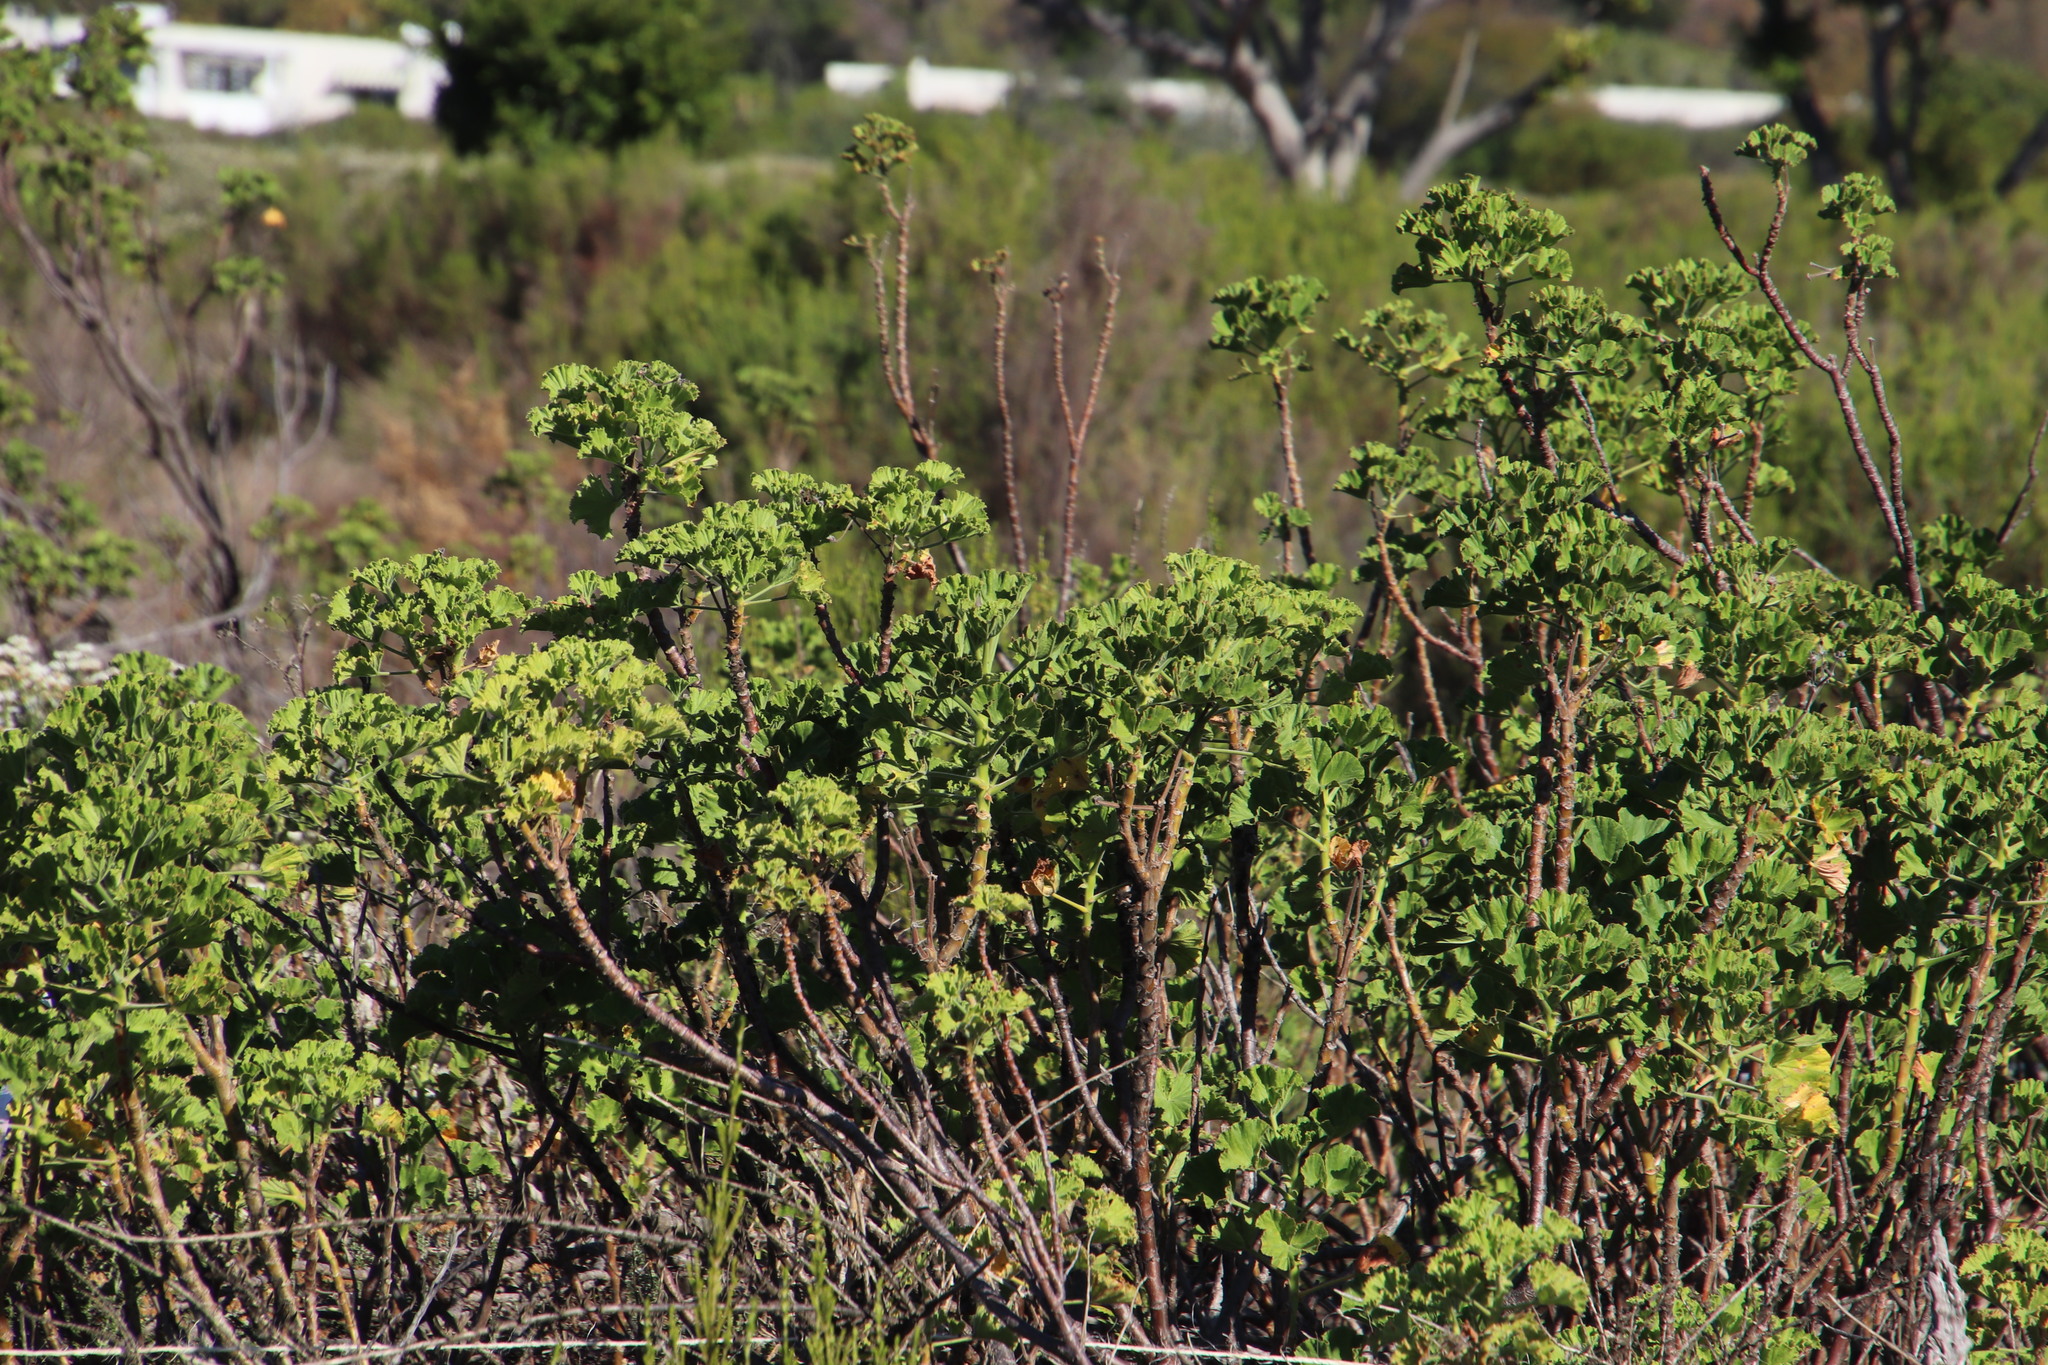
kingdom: Plantae
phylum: Tracheophyta
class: Magnoliopsida
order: Geraniales
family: Geraniaceae
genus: Pelargonium
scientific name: Pelargonium cucullatum
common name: Tree pelargonium
